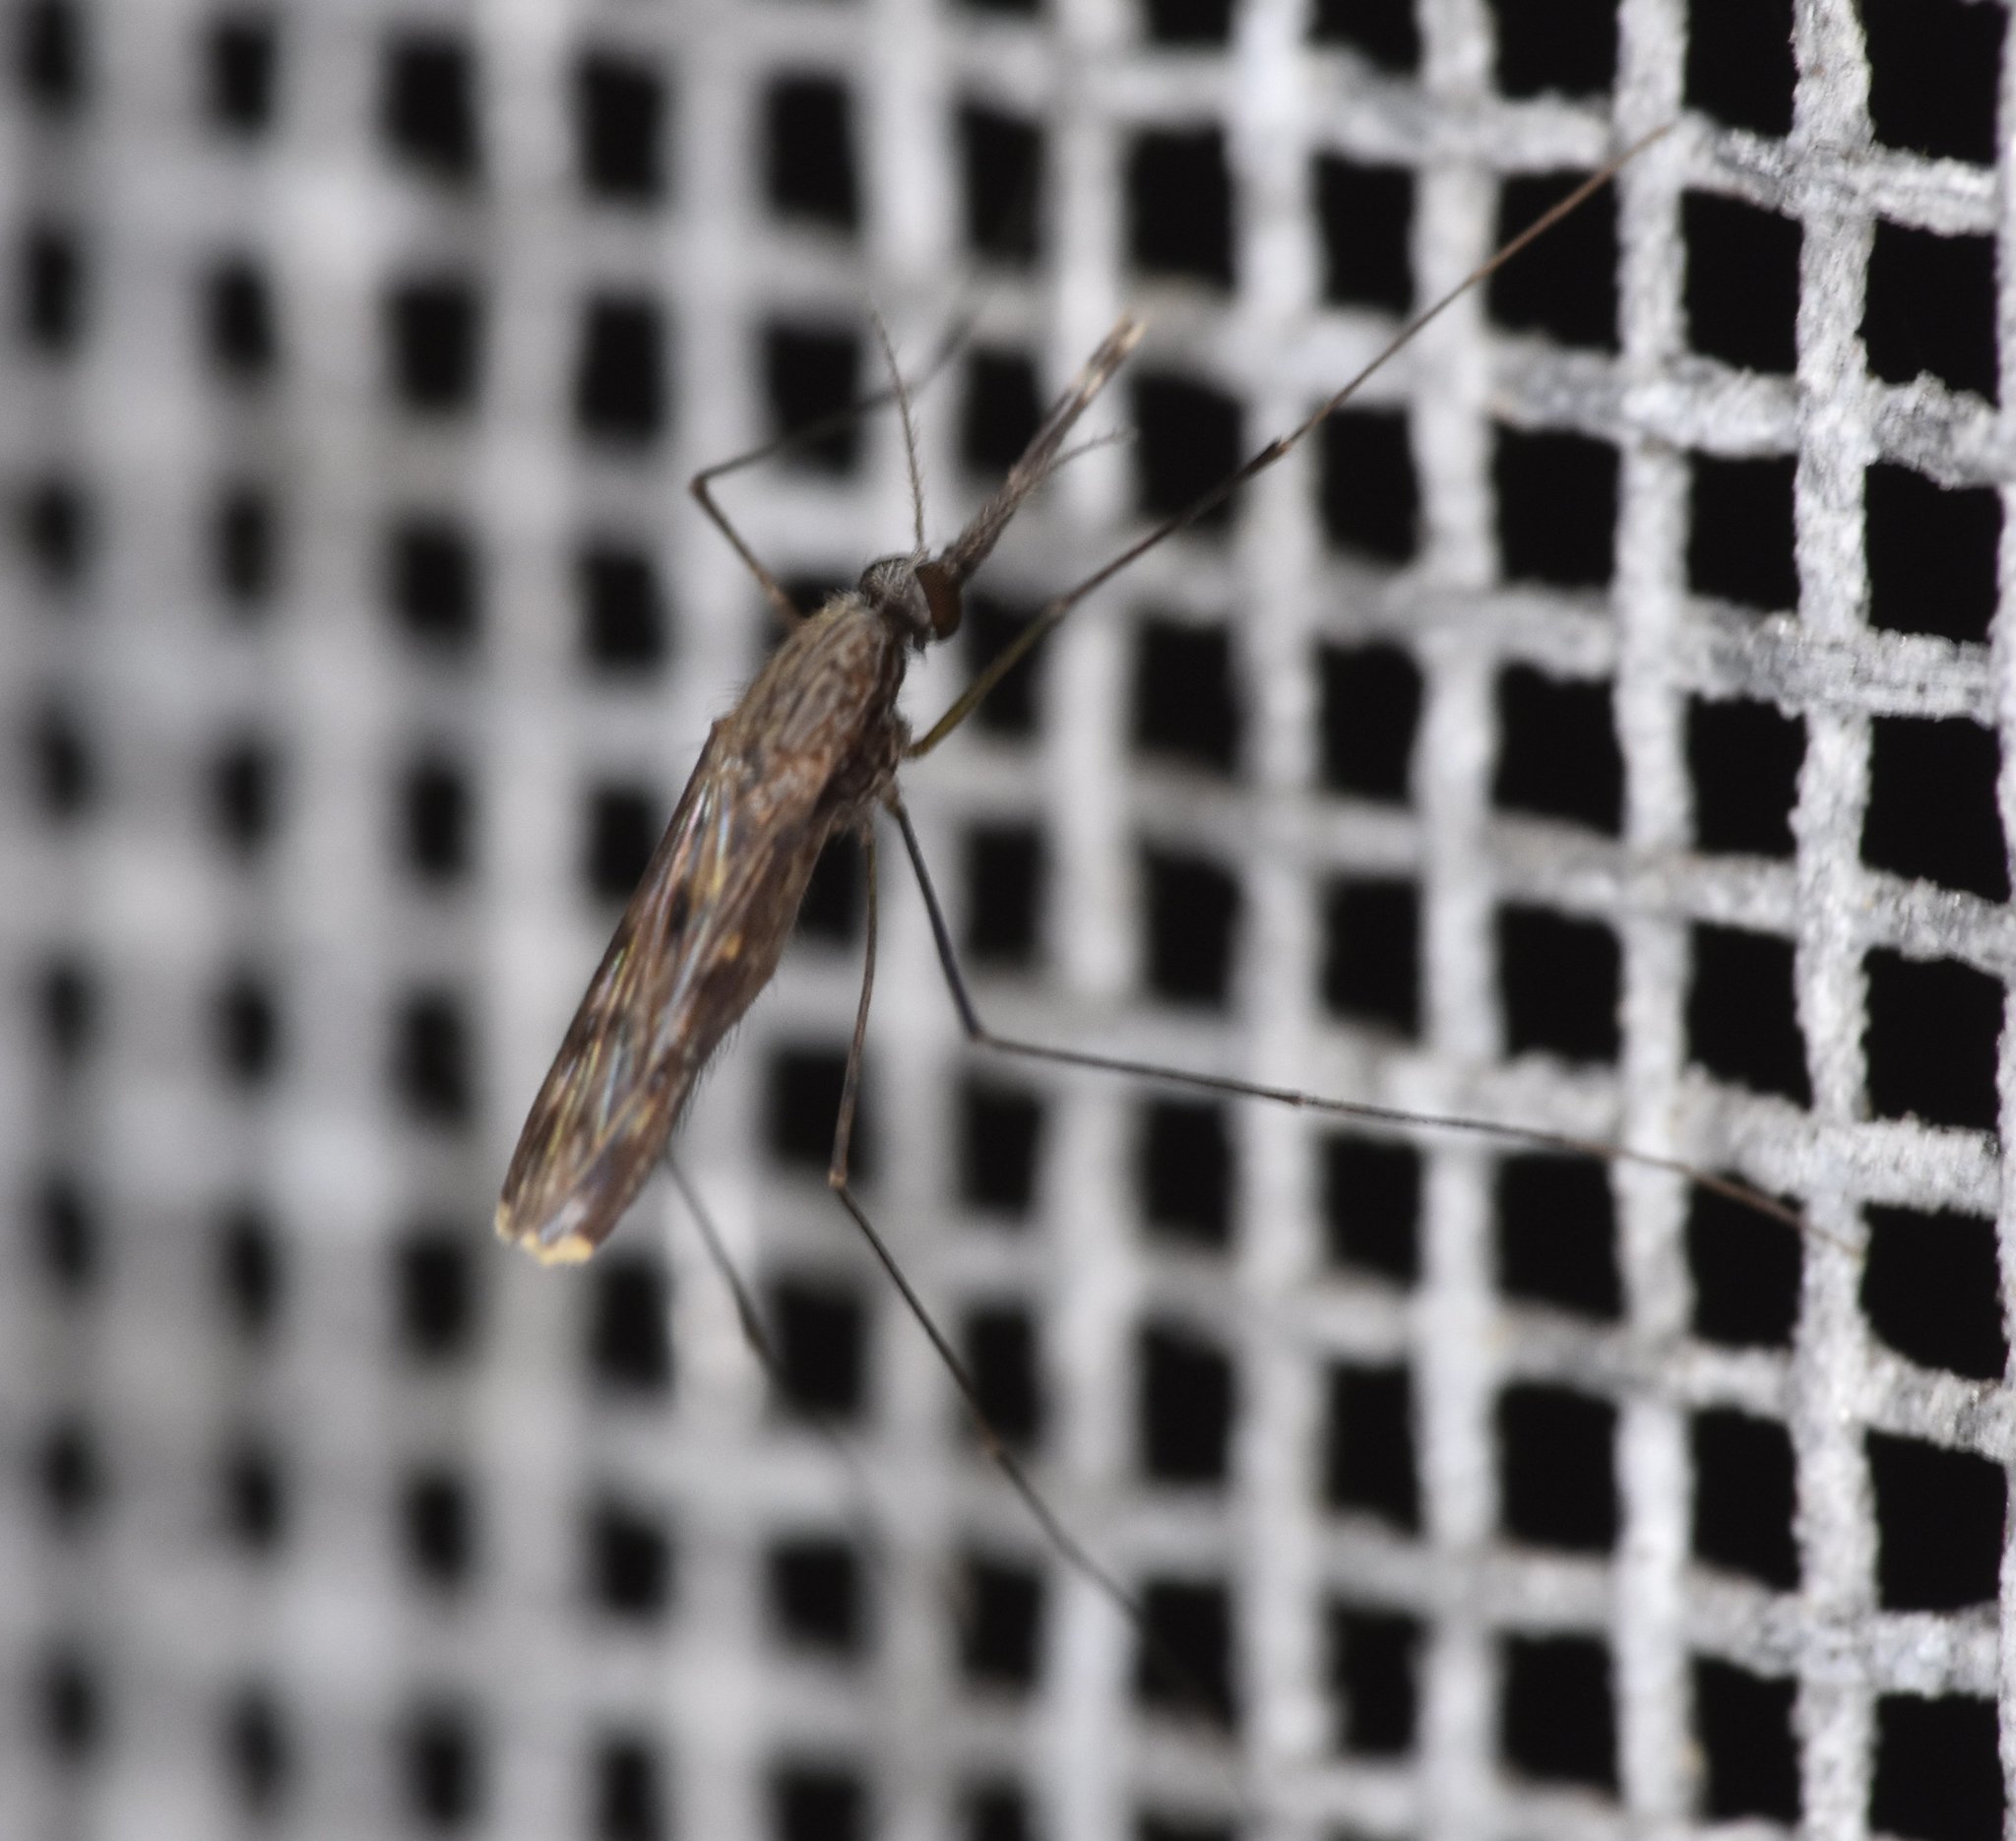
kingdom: Animalia
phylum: Arthropoda
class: Insecta
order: Diptera
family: Culicidae
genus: Anopheles
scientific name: Anopheles
